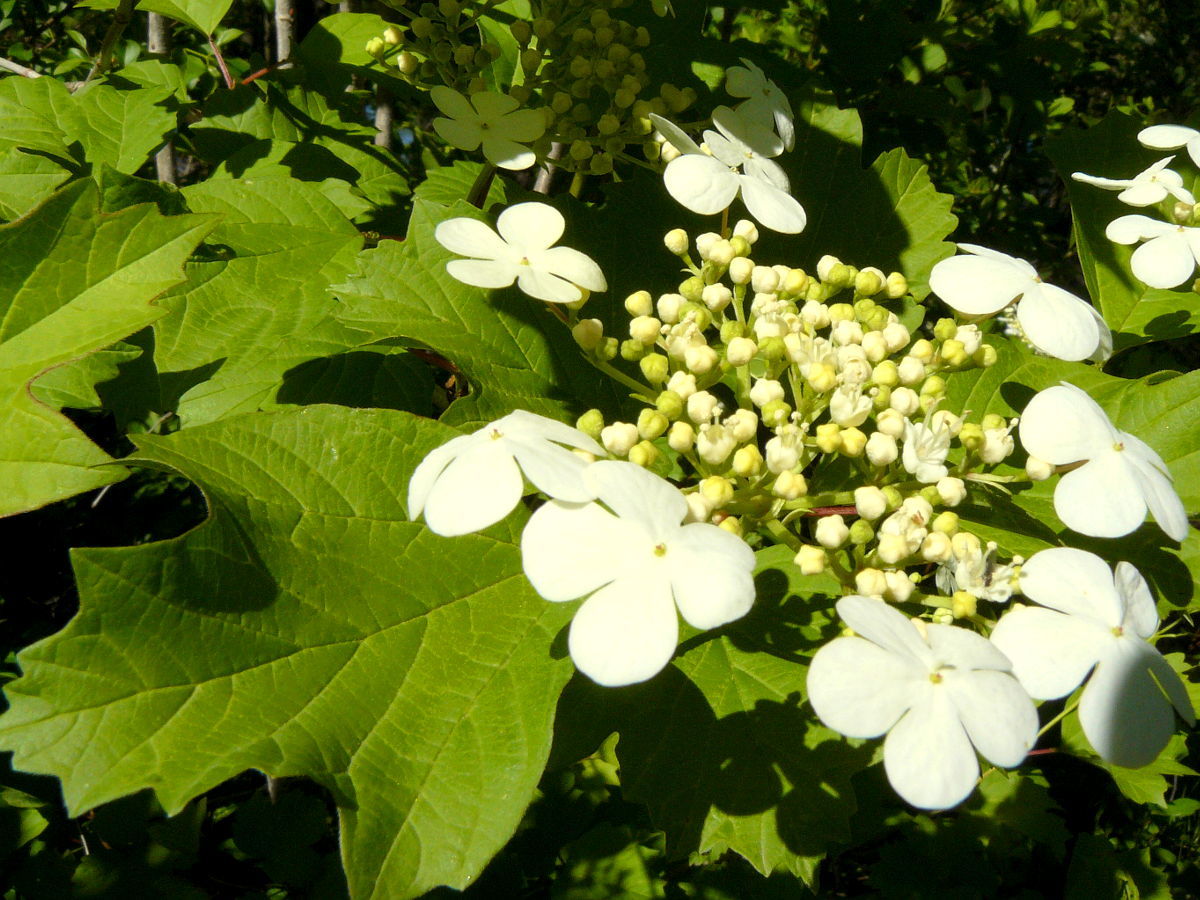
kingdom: Plantae
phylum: Tracheophyta
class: Magnoliopsida
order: Dipsacales
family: Viburnaceae
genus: Viburnum
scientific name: Viburnum opulus
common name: Guelder-rose
